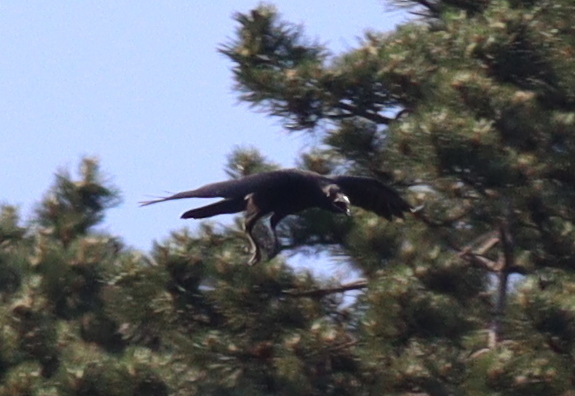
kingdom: Animalia
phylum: Chordata
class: Aves
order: Passeriformes
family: Corvidae
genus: Corvus
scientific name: Corvus corax
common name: Common raven
